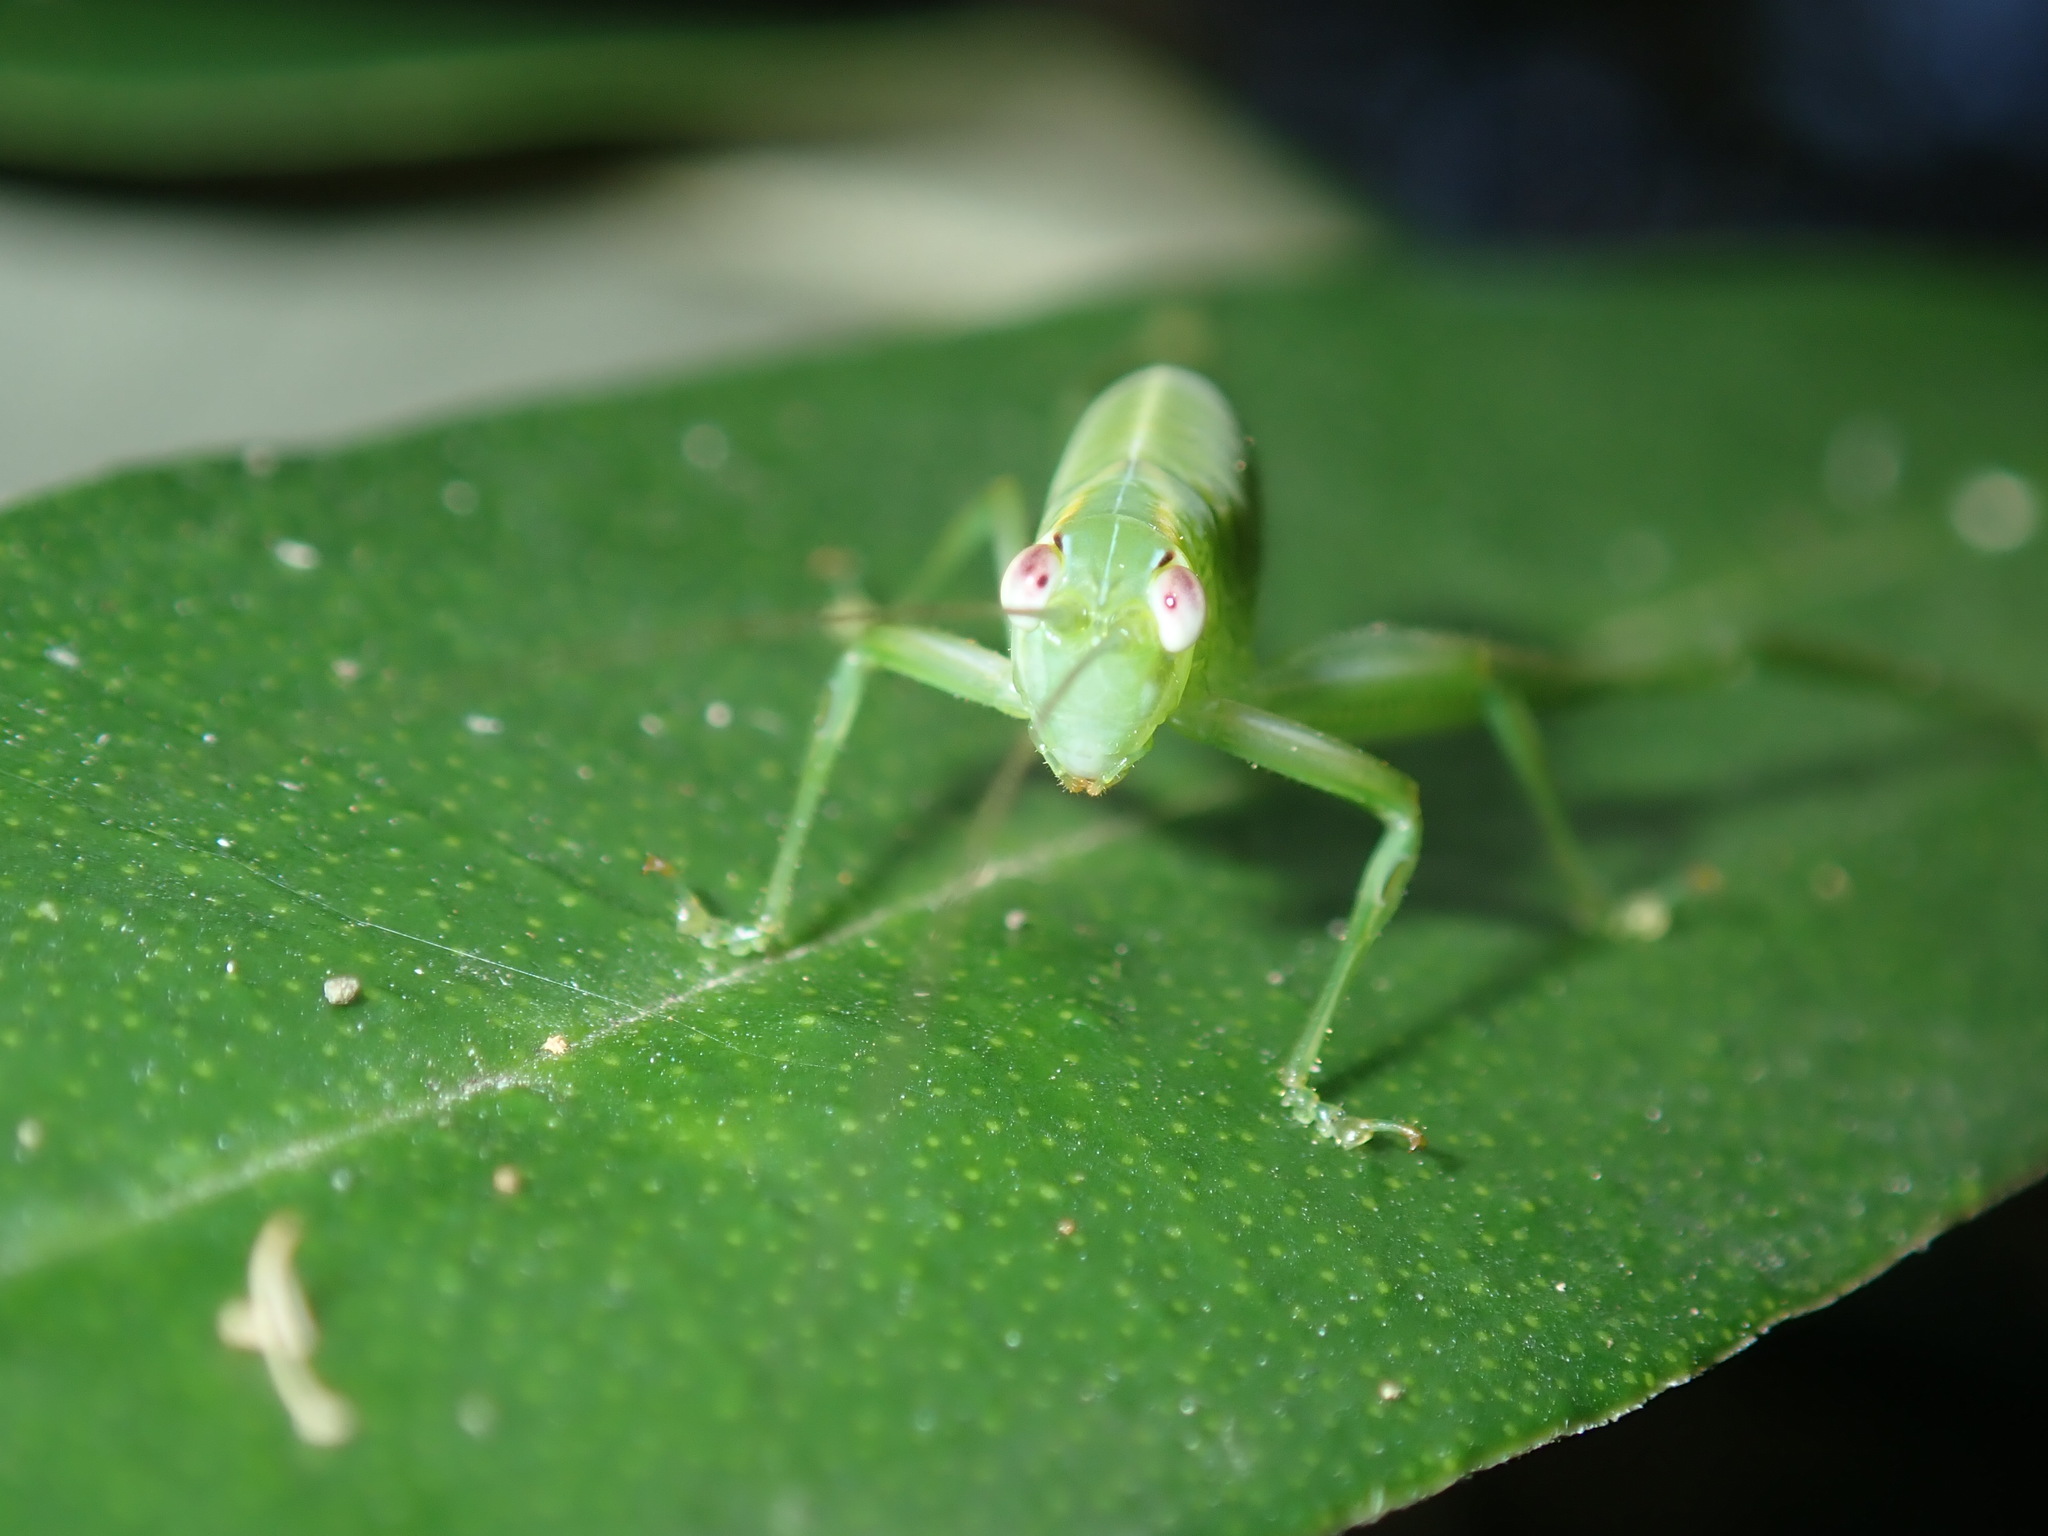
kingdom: Animalia
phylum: Arthropoda
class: Insecta
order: Orthoptera
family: Tettigoniidae
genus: Caedicia
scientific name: Caedicia simplex
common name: Common garden katydid
